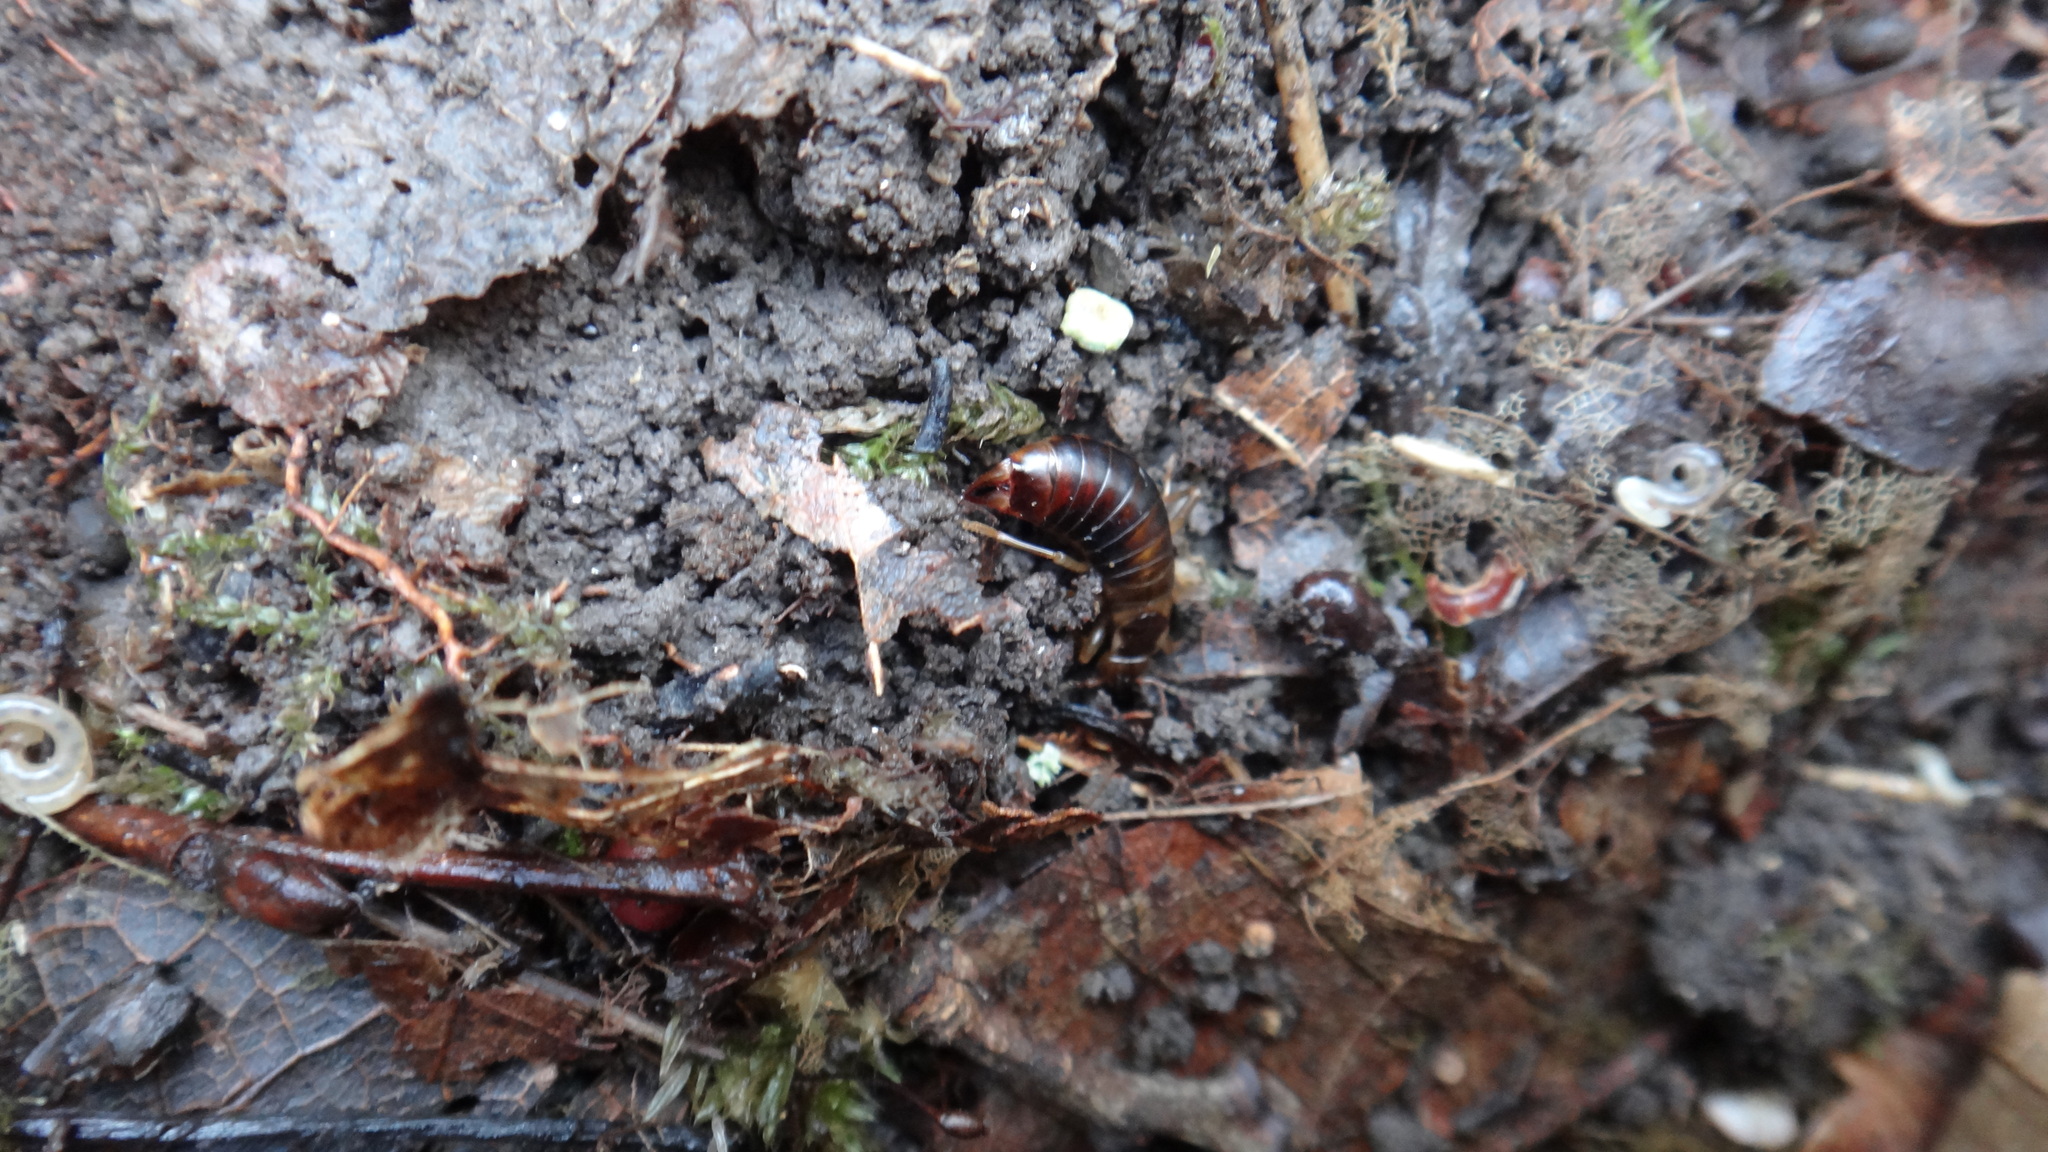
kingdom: Animalia
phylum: Arthropoda
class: Insecta
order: Dermaptera
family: Forficulidae
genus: Chelidurella
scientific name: Chelidurella acanthopygia
